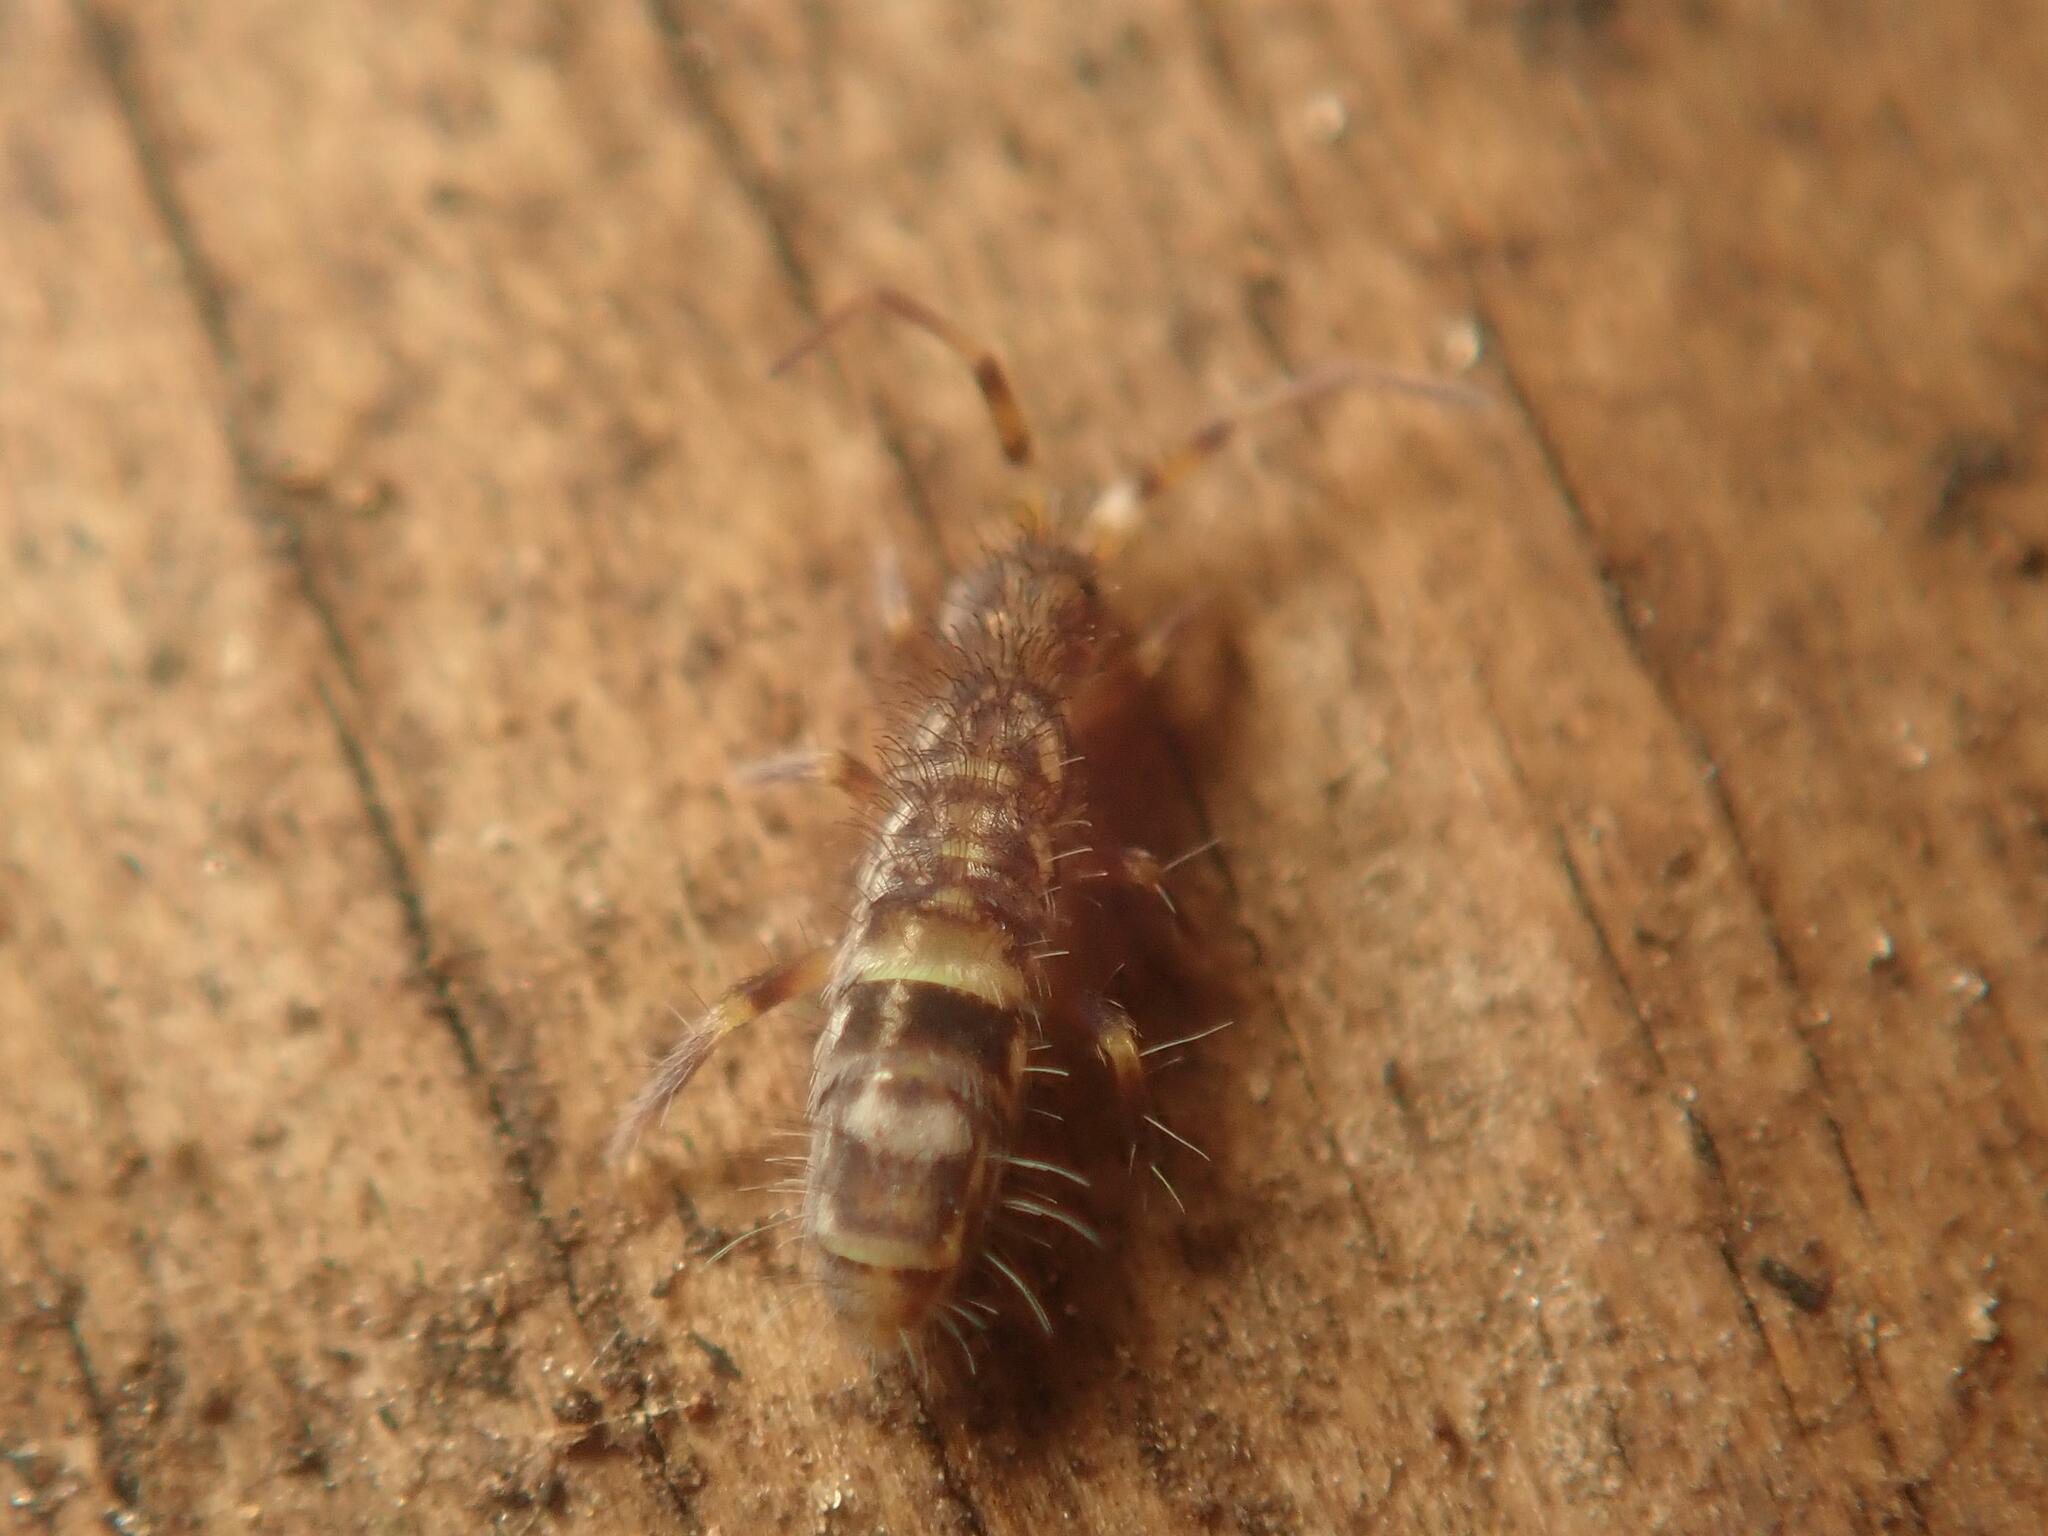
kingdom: Animalia
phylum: Arthropoda
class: Collembola
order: Entomobryomorpha
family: Orchesellidae
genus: Orchesella
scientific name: Orchesella cincta
